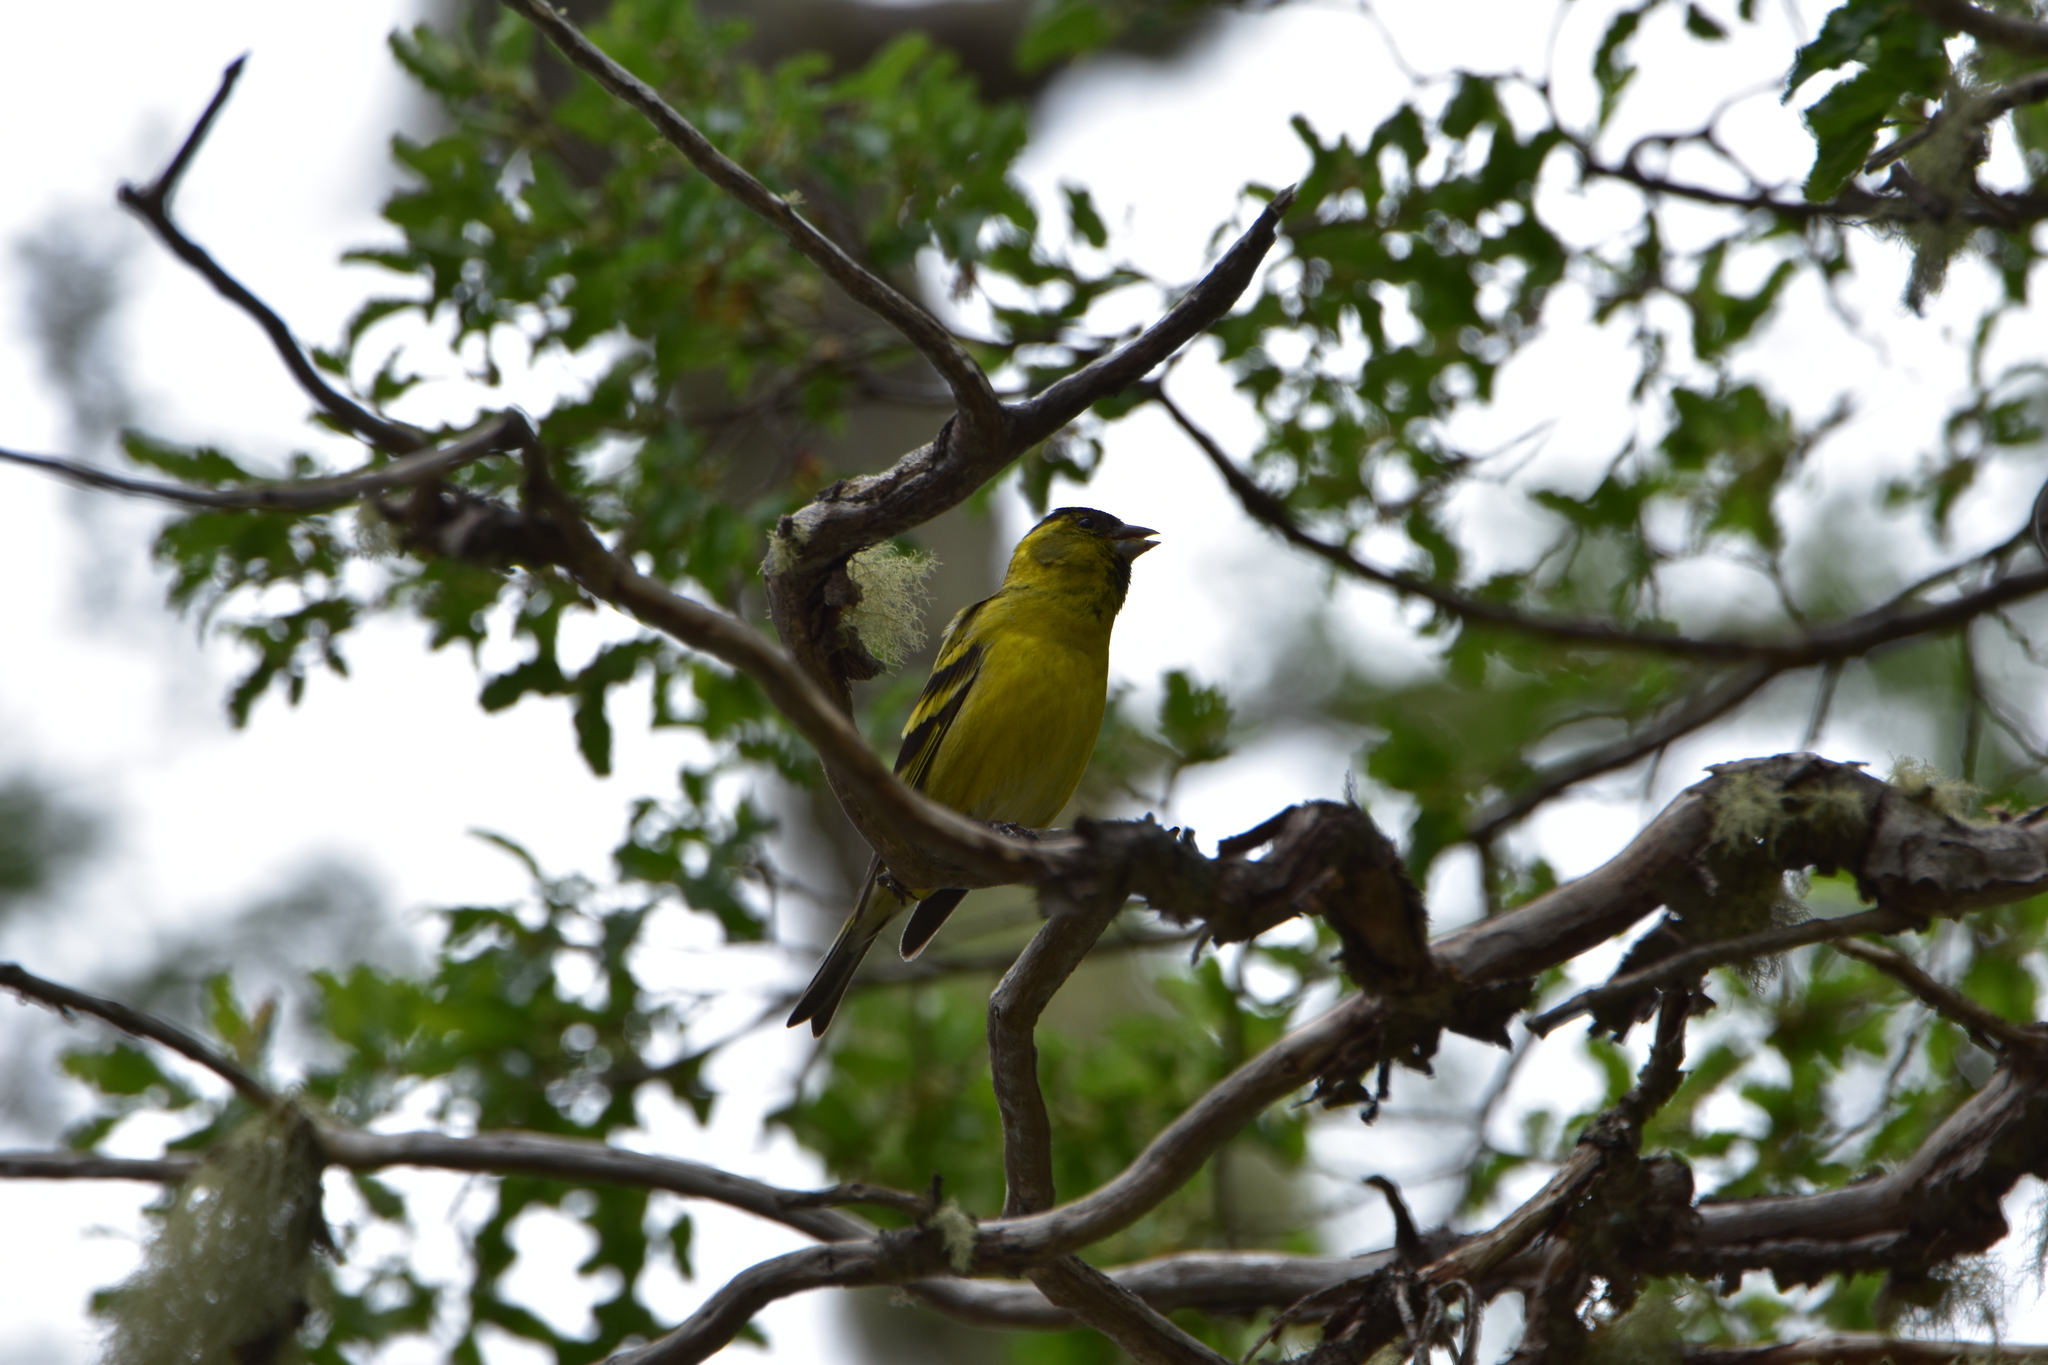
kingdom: Animalia
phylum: Chordata
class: Aves
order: Passeriformes
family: Fringillidae
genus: Spinus
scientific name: Spinus barbatus
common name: Black-chinned siskin
